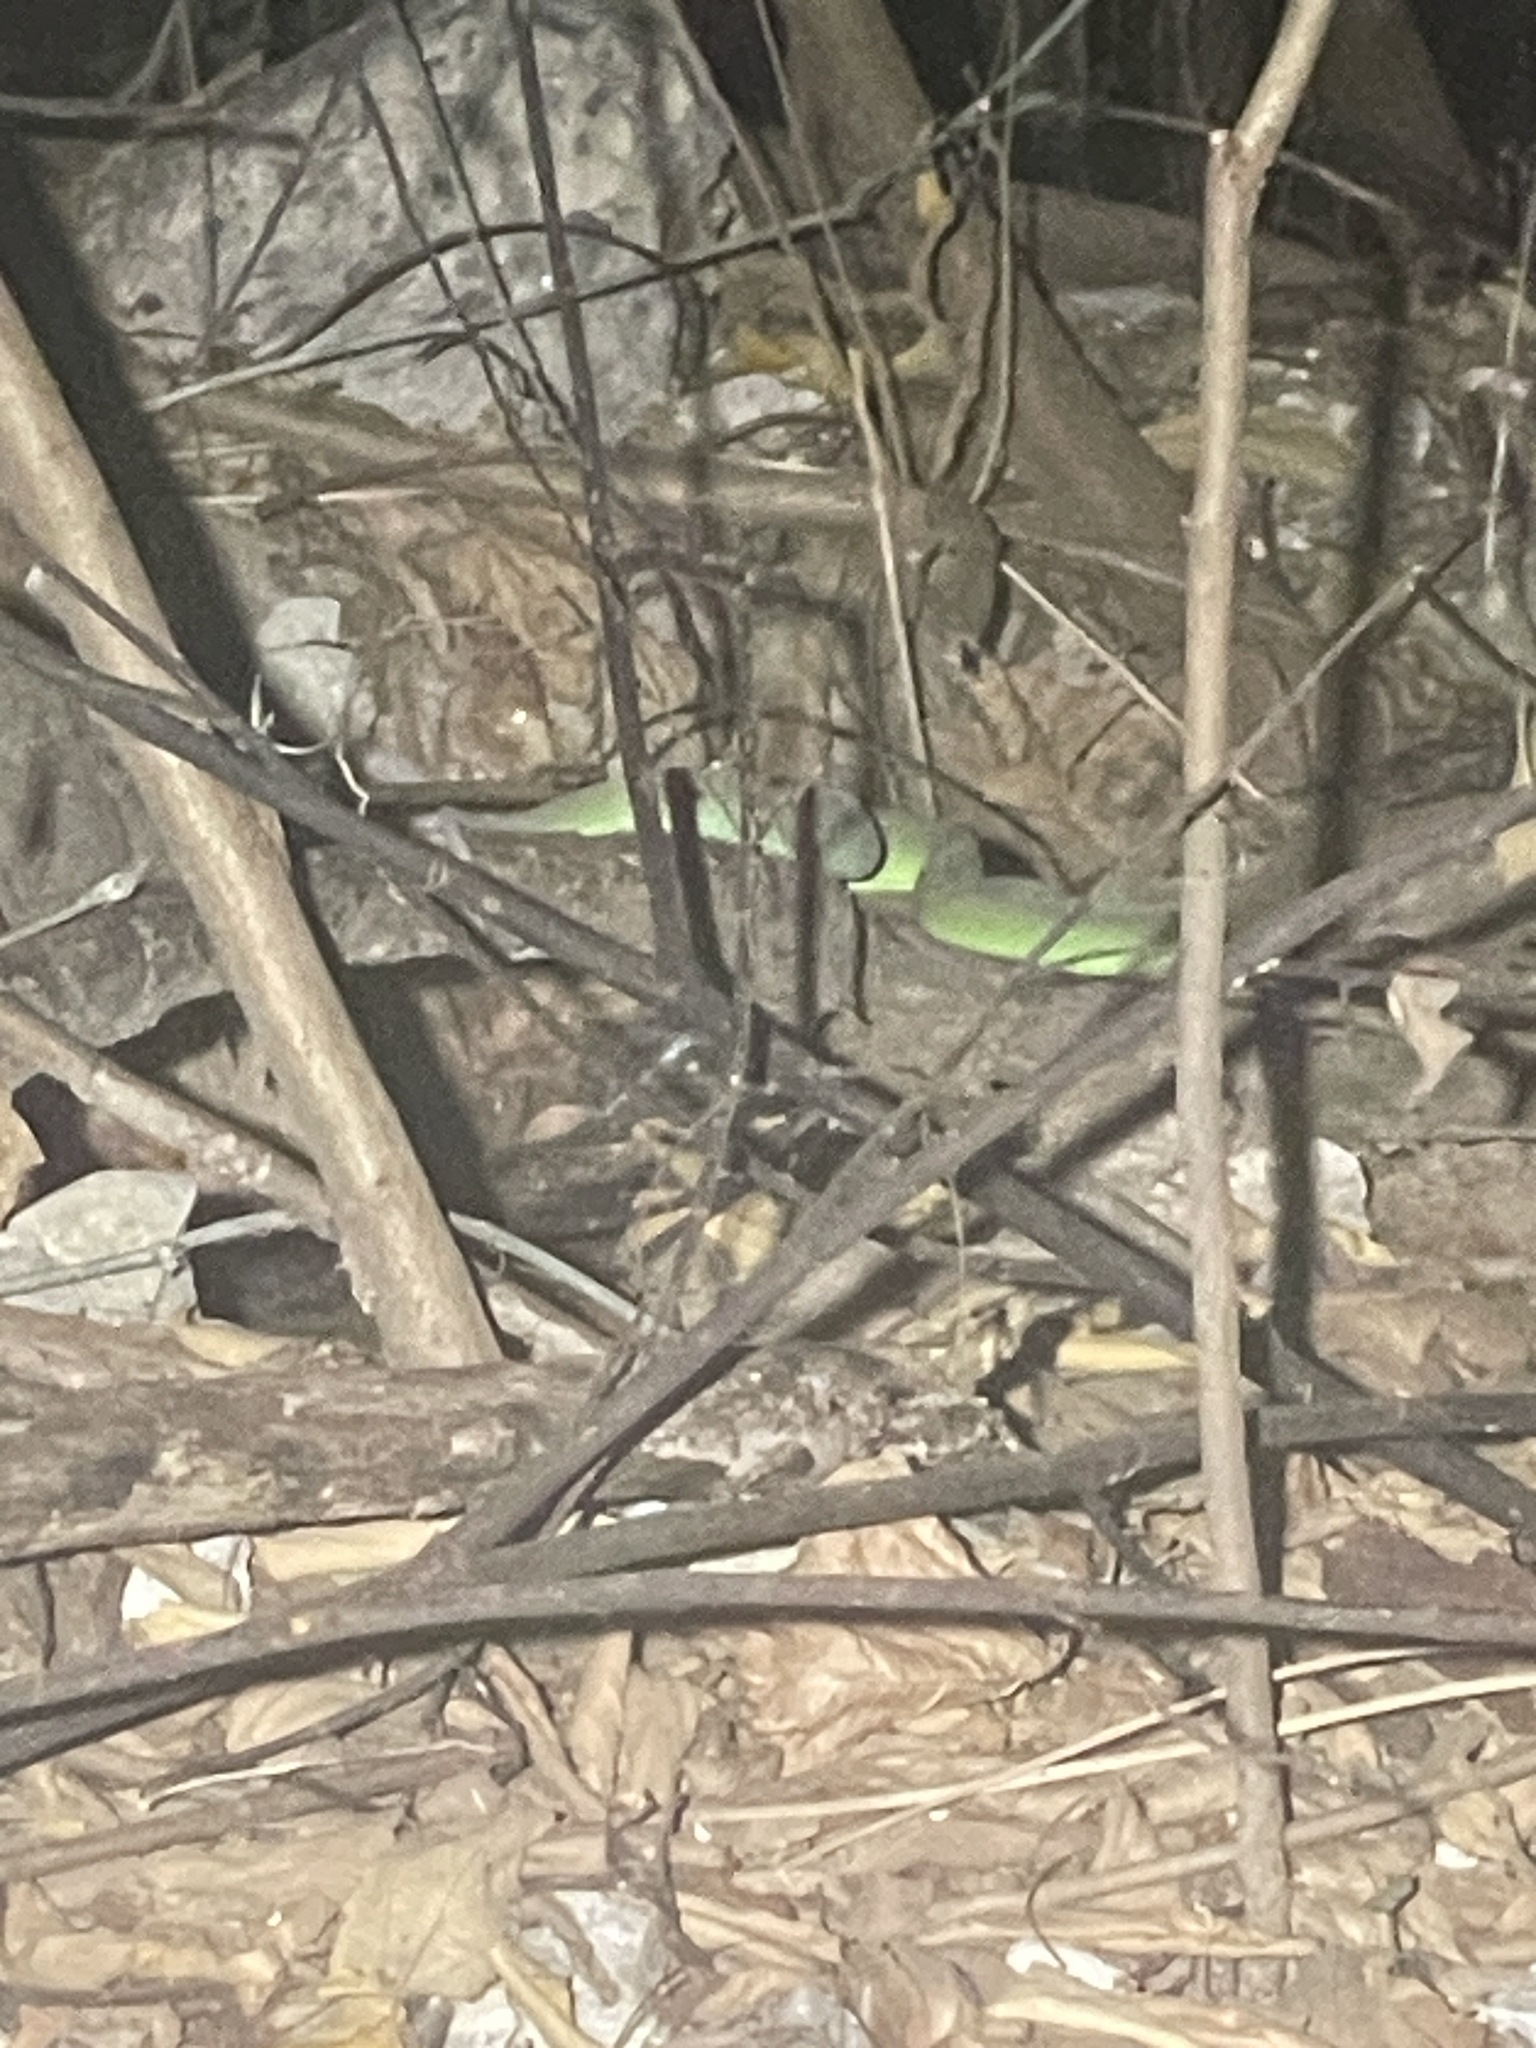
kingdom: Animalia
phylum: Chordata
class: Squamata
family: Viperidae
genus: Trimeresurus
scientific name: Trimeresurus macrops
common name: Kramer's pit viper
